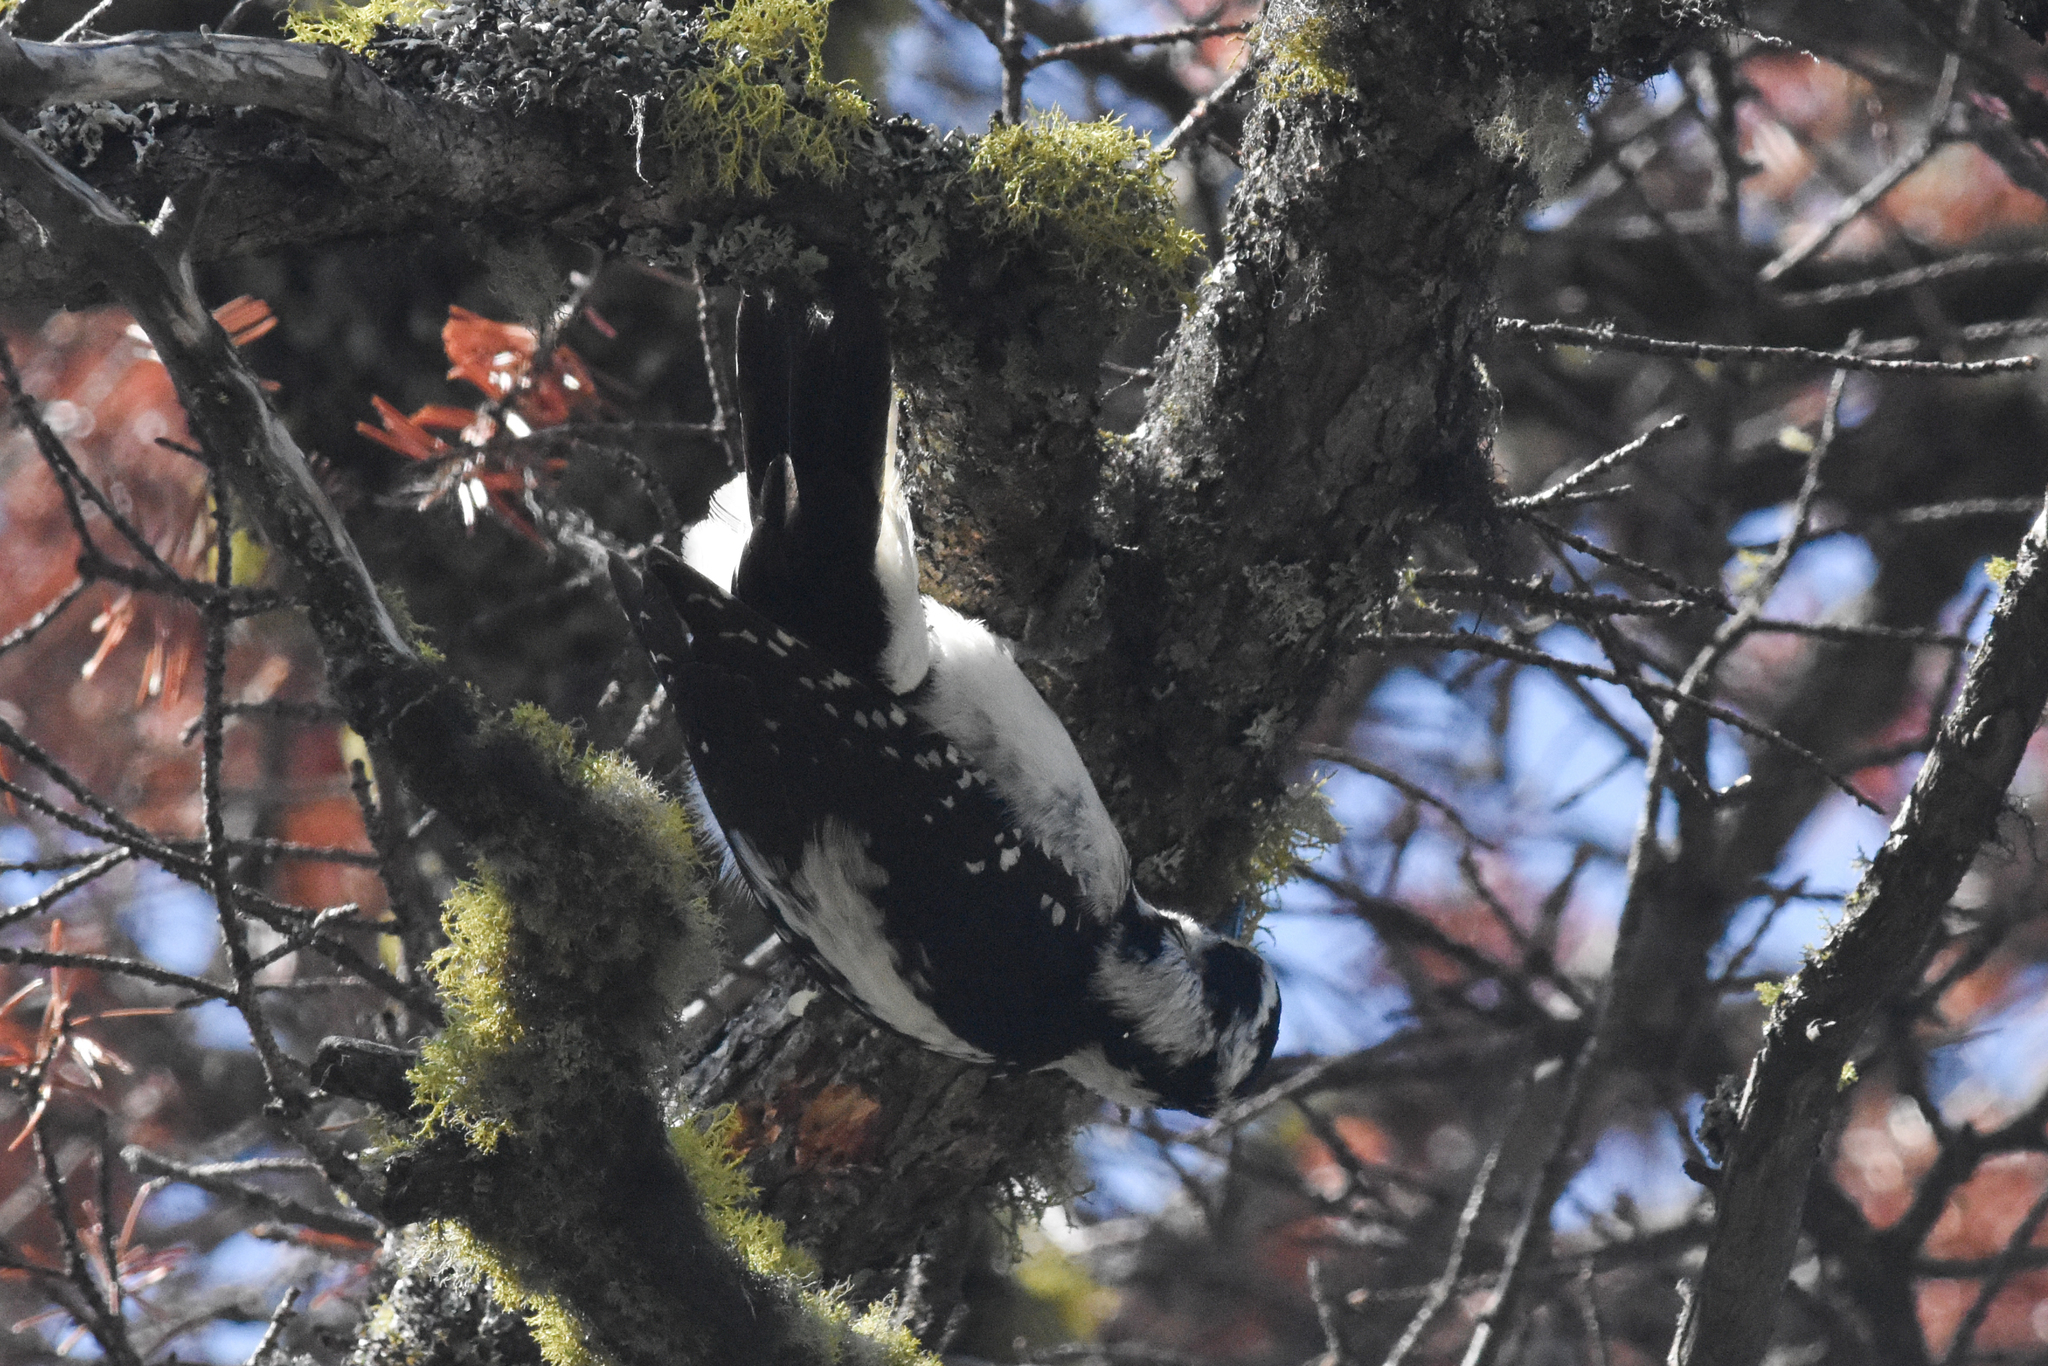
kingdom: Animalia
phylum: Chordata
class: Aves
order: Piciformes
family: Picidae
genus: Leuconotopicus
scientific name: Leuconotopicus villosus
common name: Hairy woodpecker
